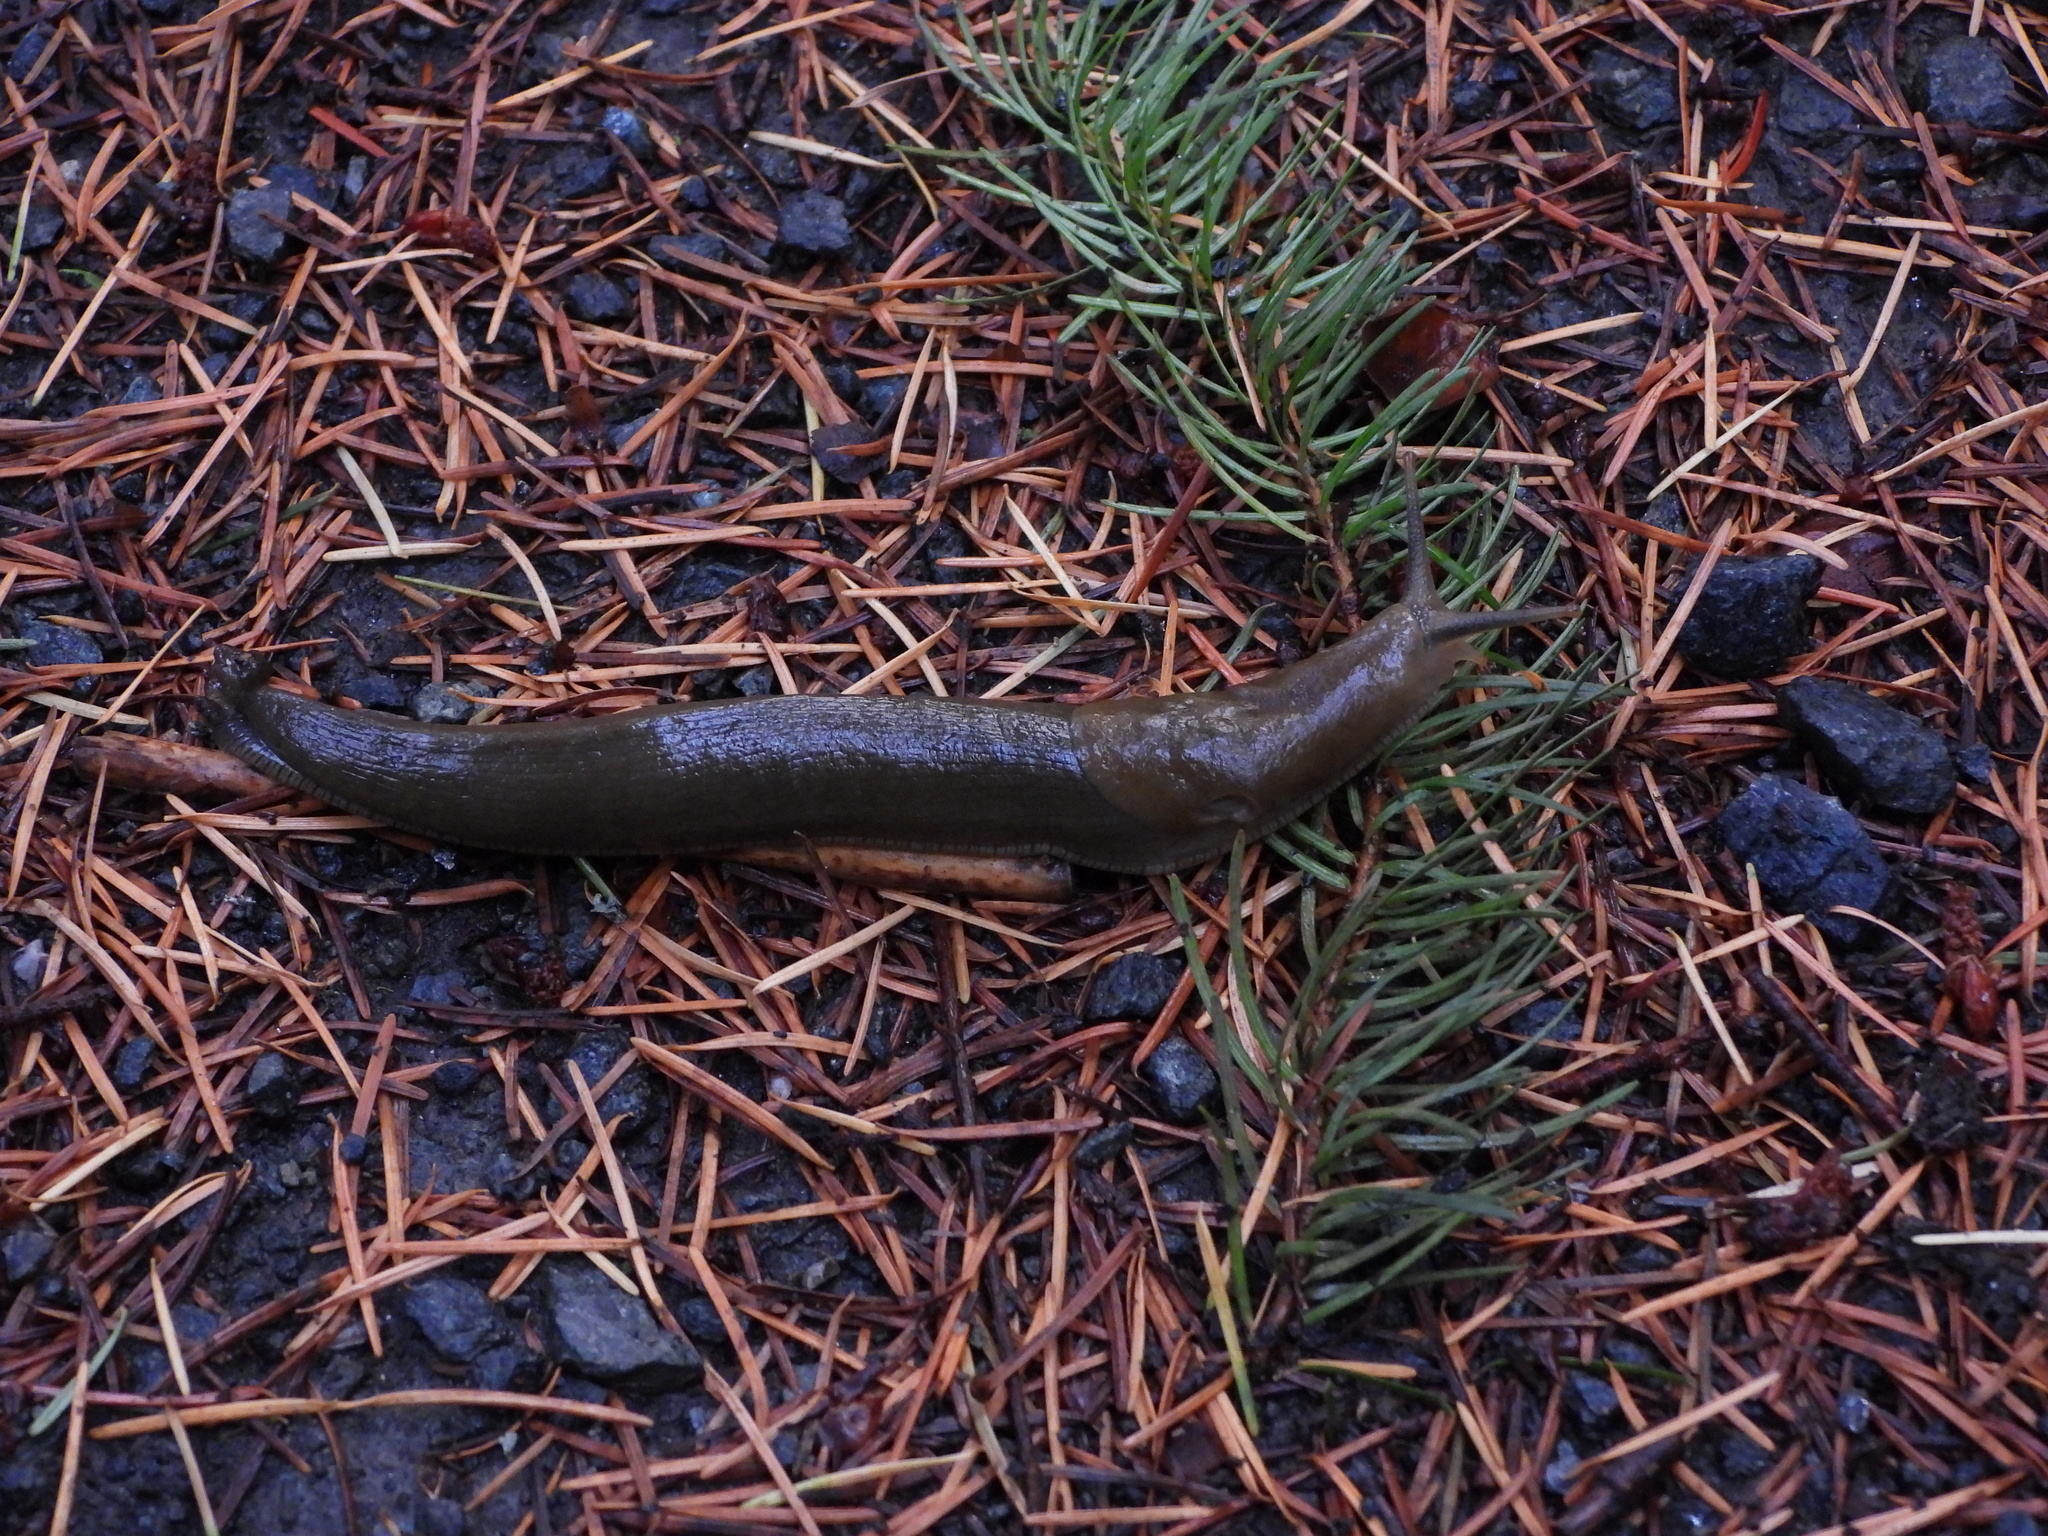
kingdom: Animalia
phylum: Mollusca
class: Gastropoda
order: Stylommatophora
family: Ariolimacidae
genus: Ariolimax
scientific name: Ariolimax columbianus
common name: Pacific banana slug
